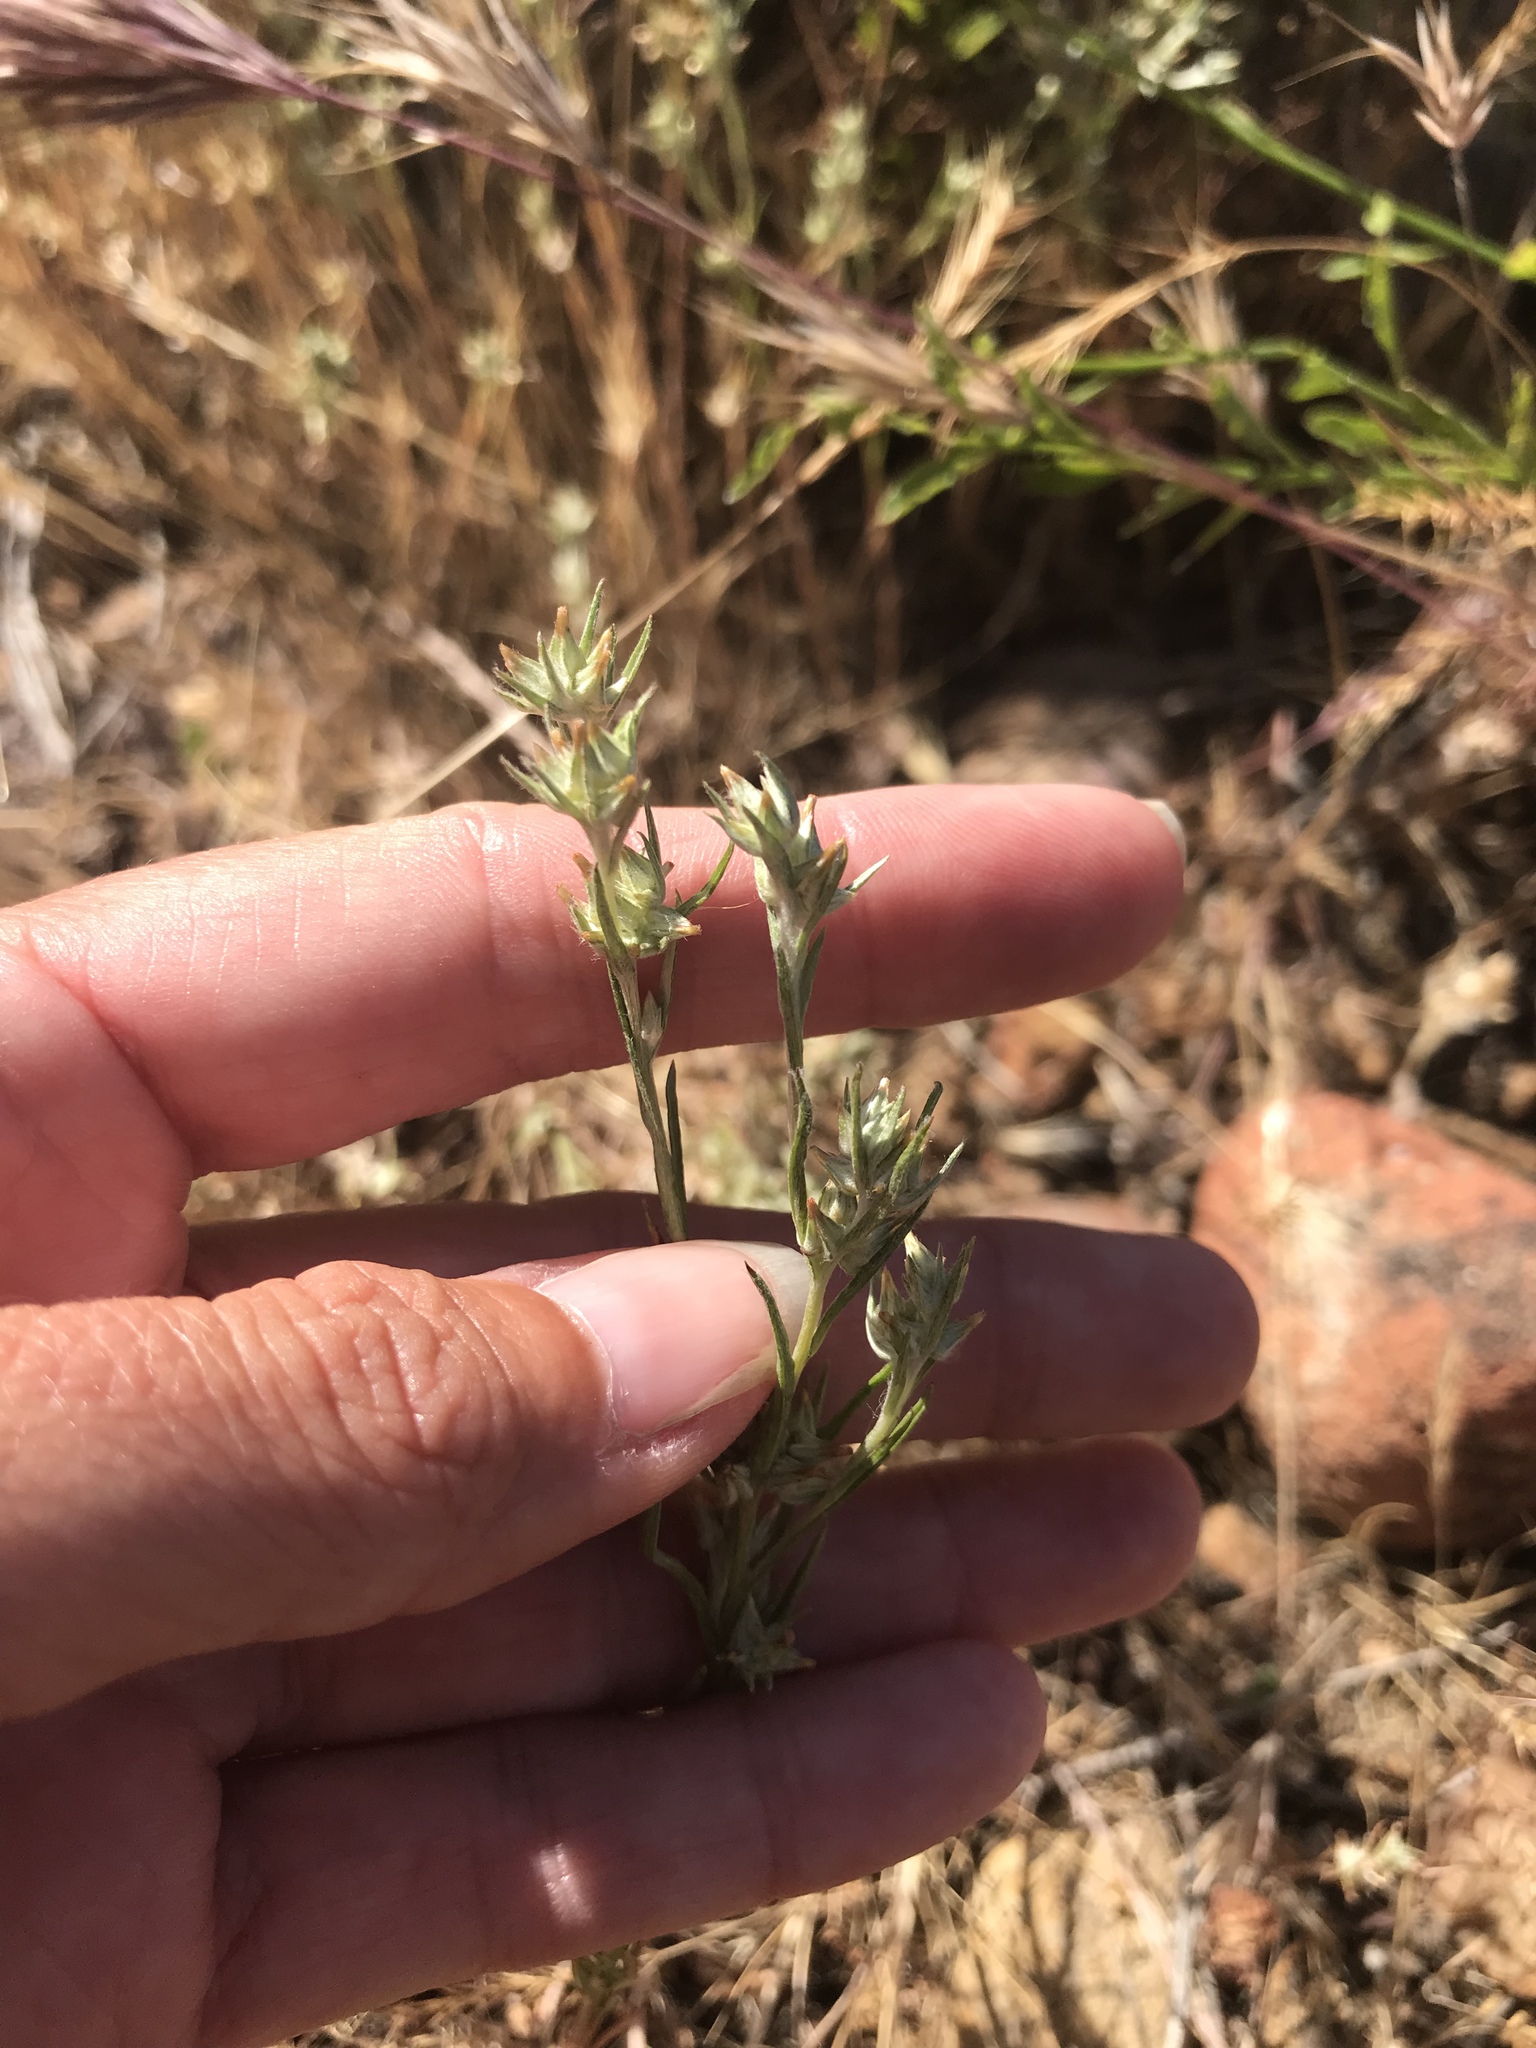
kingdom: Plantae
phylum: Tracheophyta
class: Magnoliopsida
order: Asterales
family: Asteraceae
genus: Logfia
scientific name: Logfia gallica
